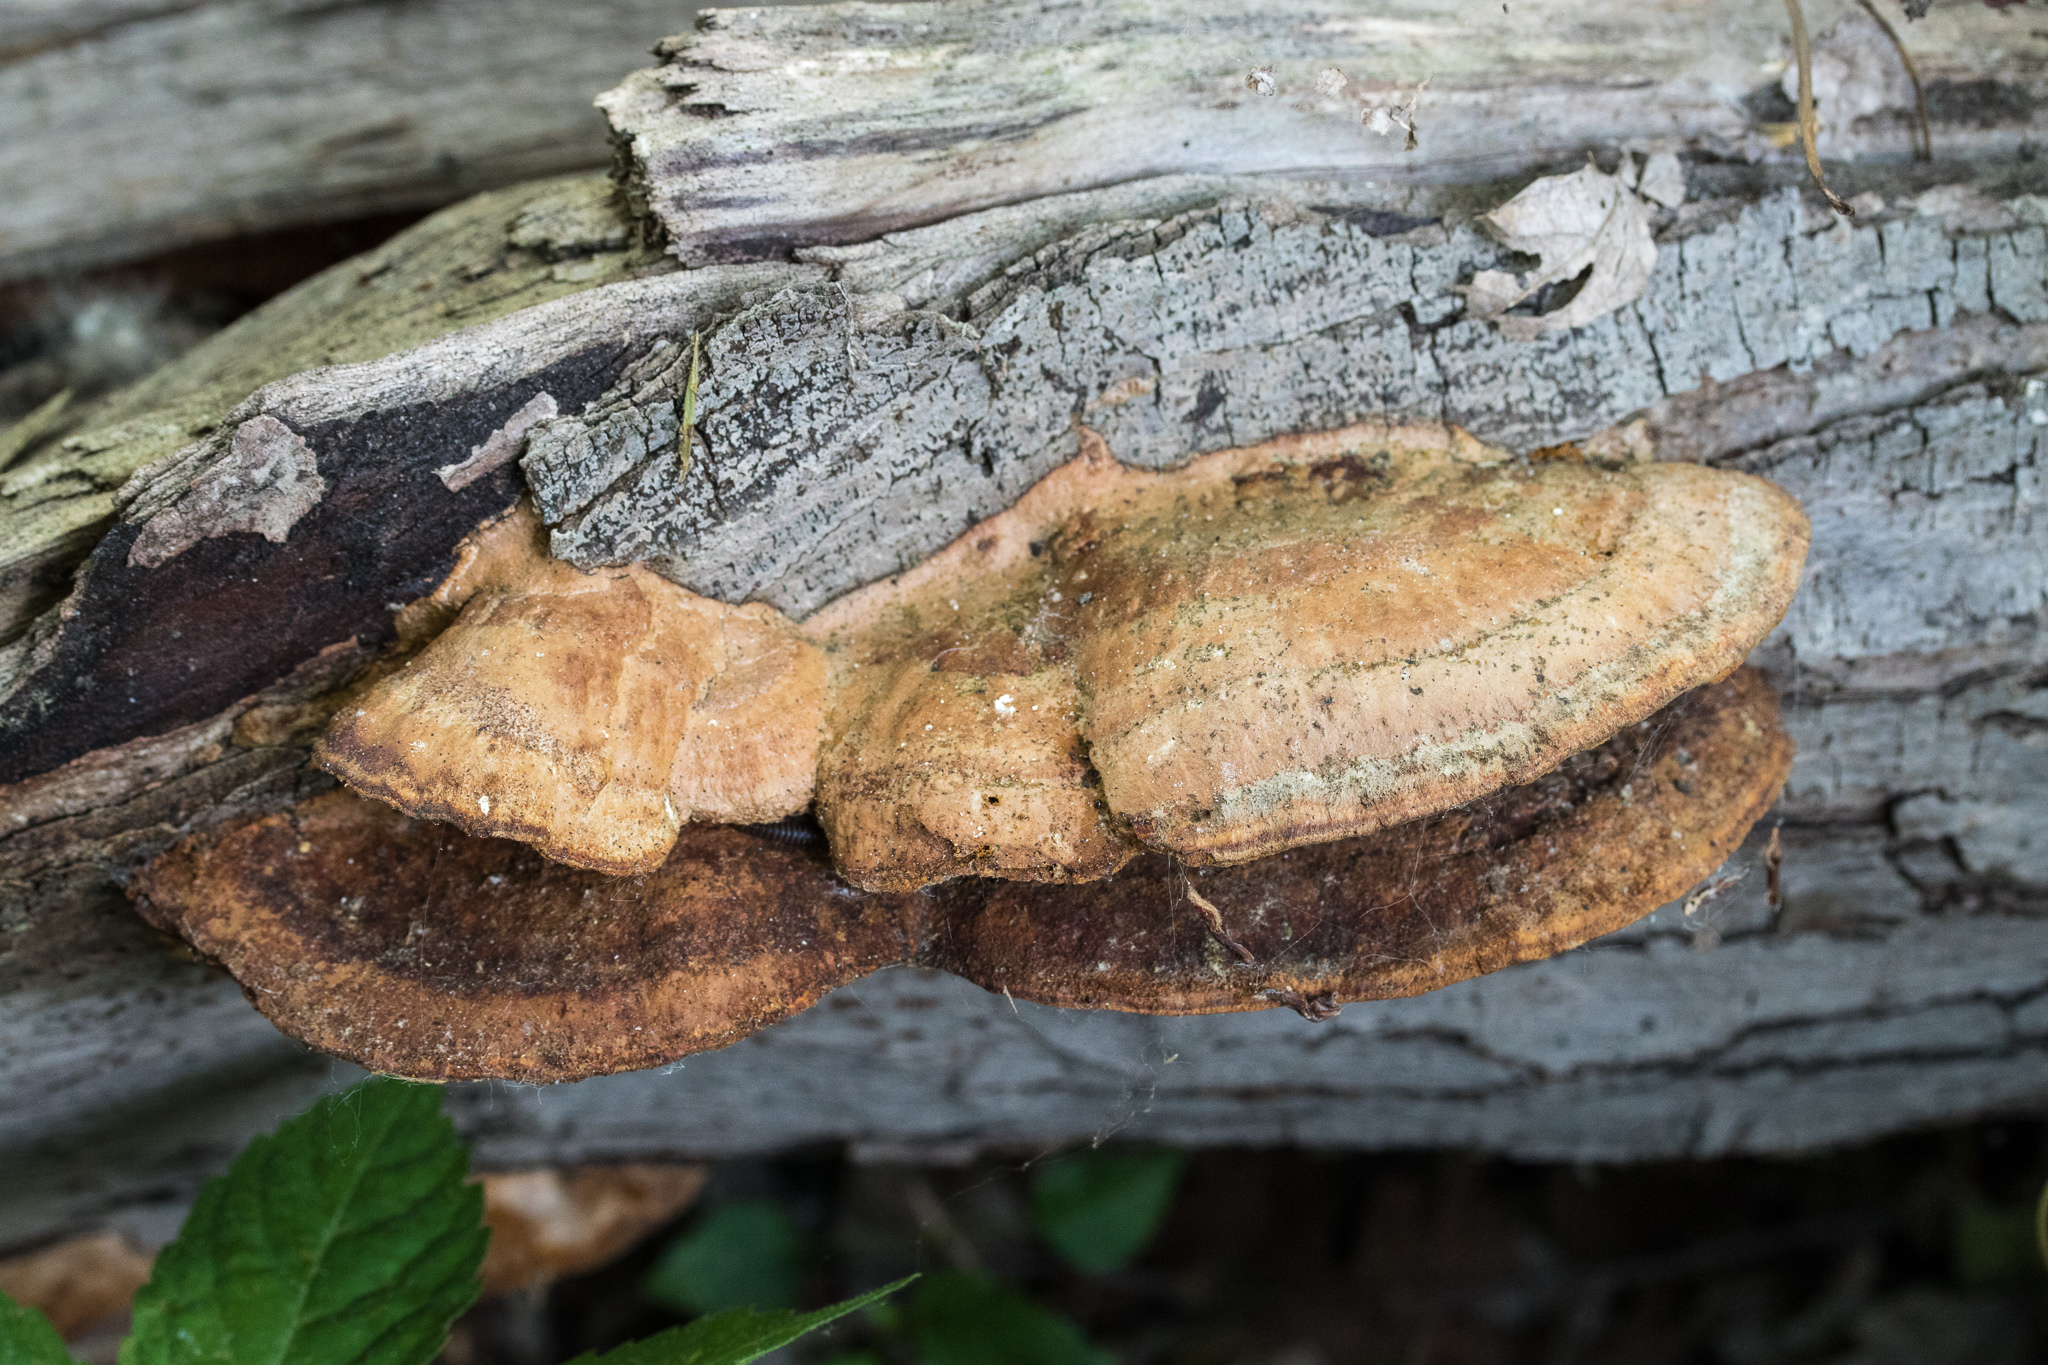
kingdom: Fungi
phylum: Basidiomycota
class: Agaricomycetes
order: Hymenochaetales
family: Hymenochaetaceae
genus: Phellinus
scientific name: Phellinus gilvus
